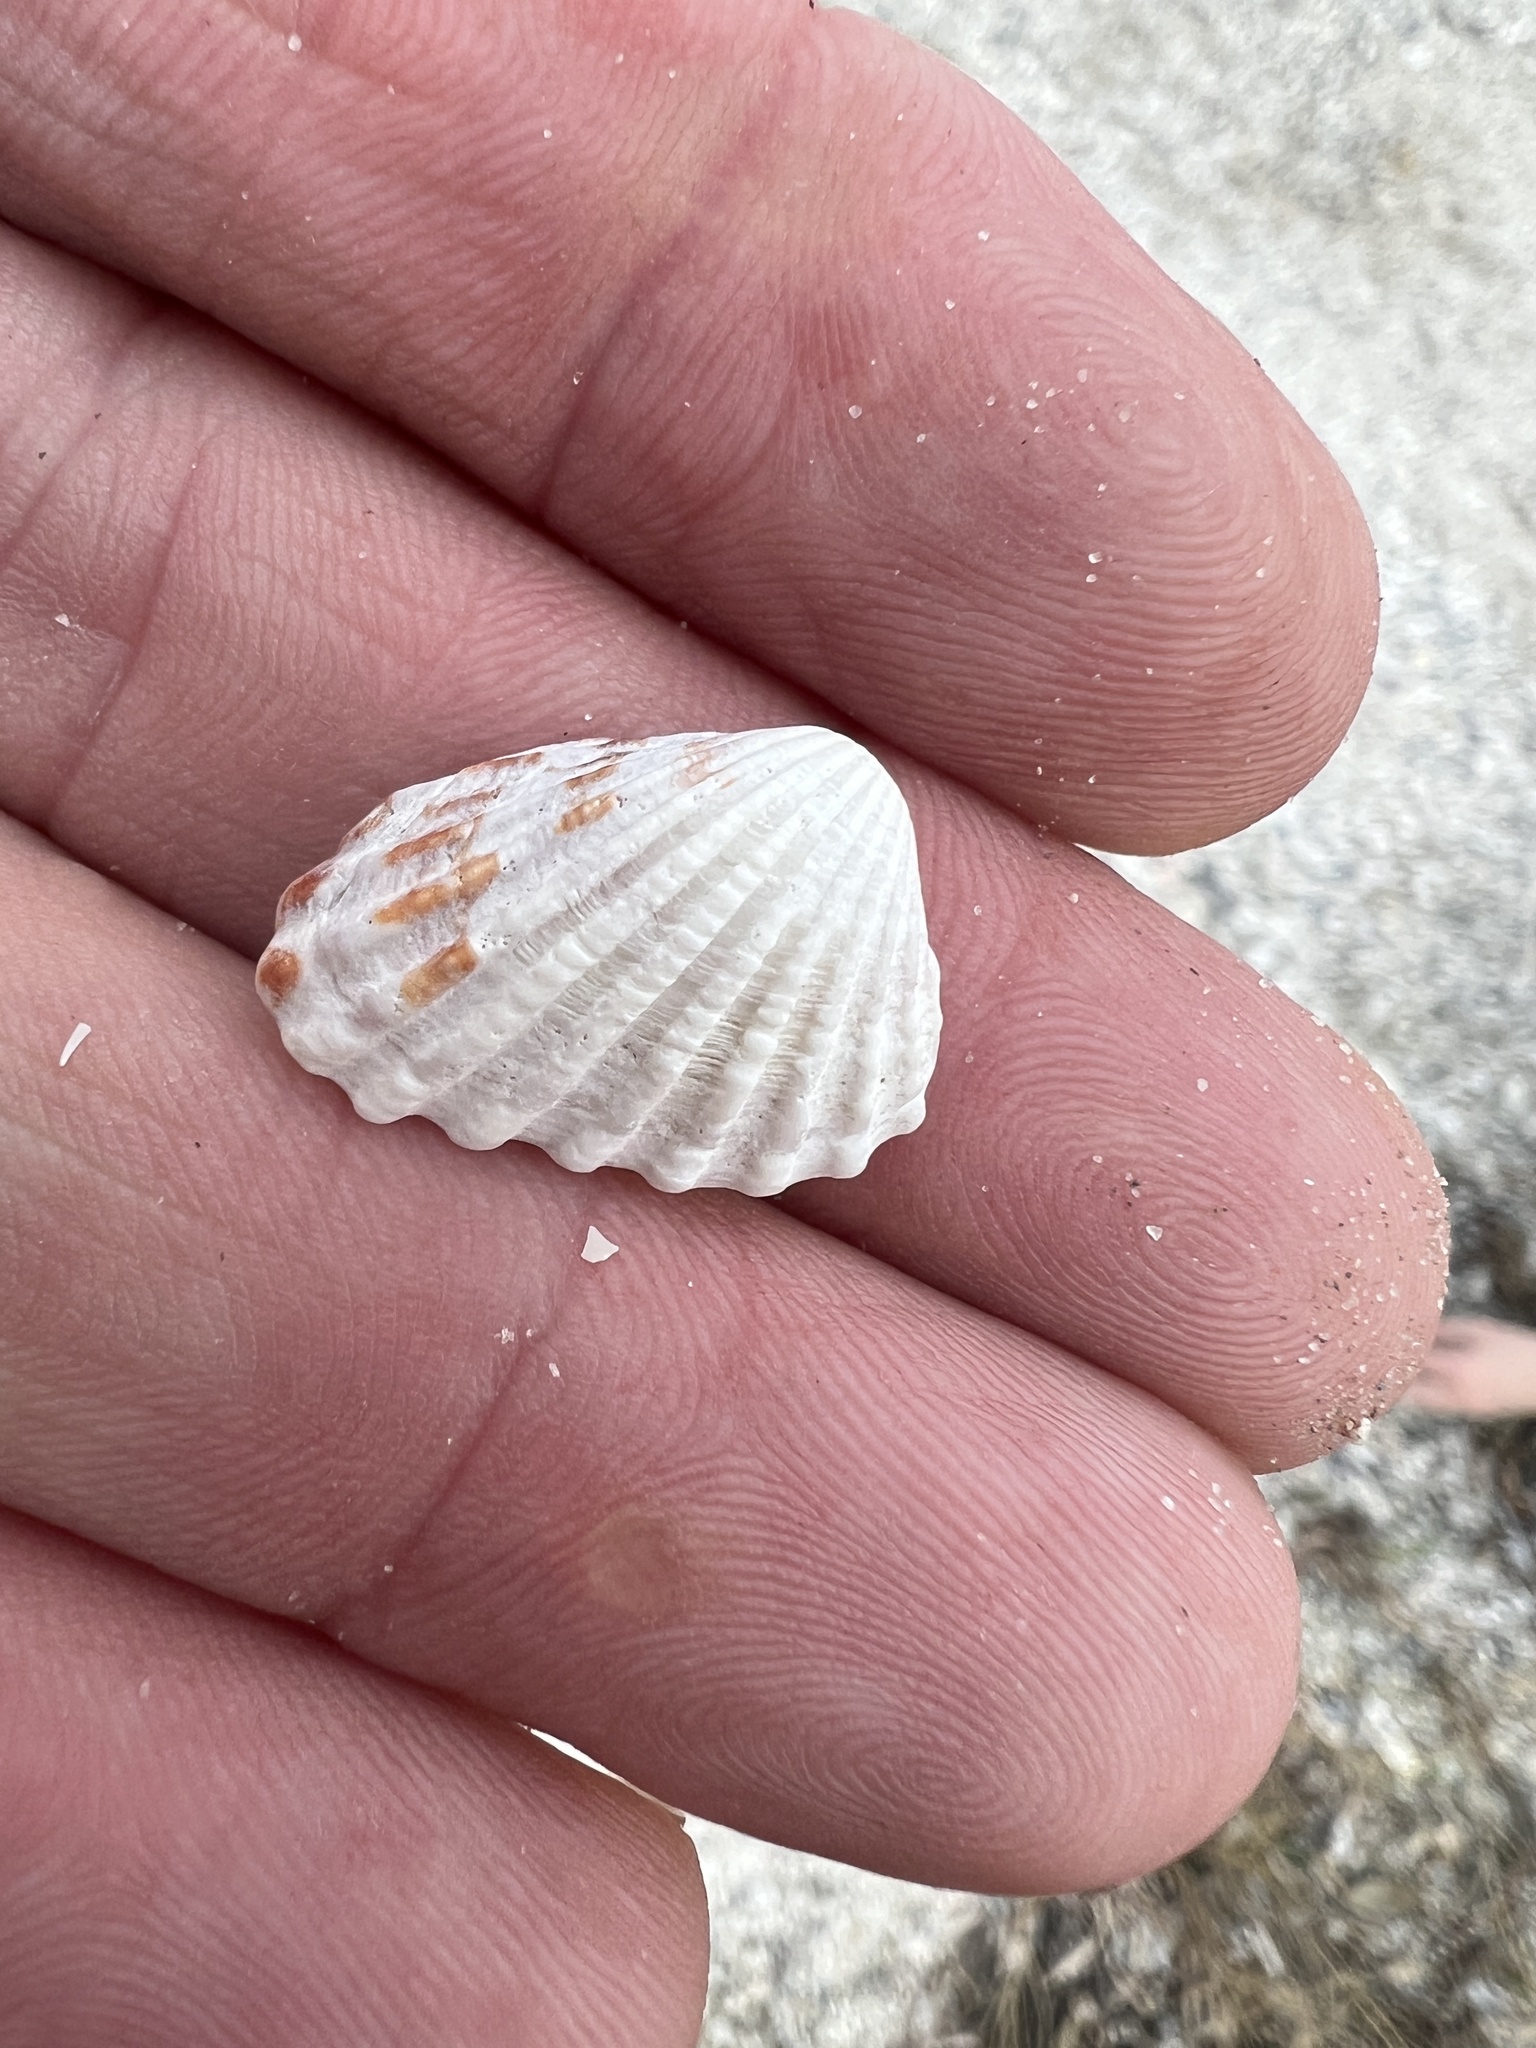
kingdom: Animalia
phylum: Mollusca
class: Bivalvia
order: Carditida
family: Carditidae
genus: Cardites
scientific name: Cardites floridanus
